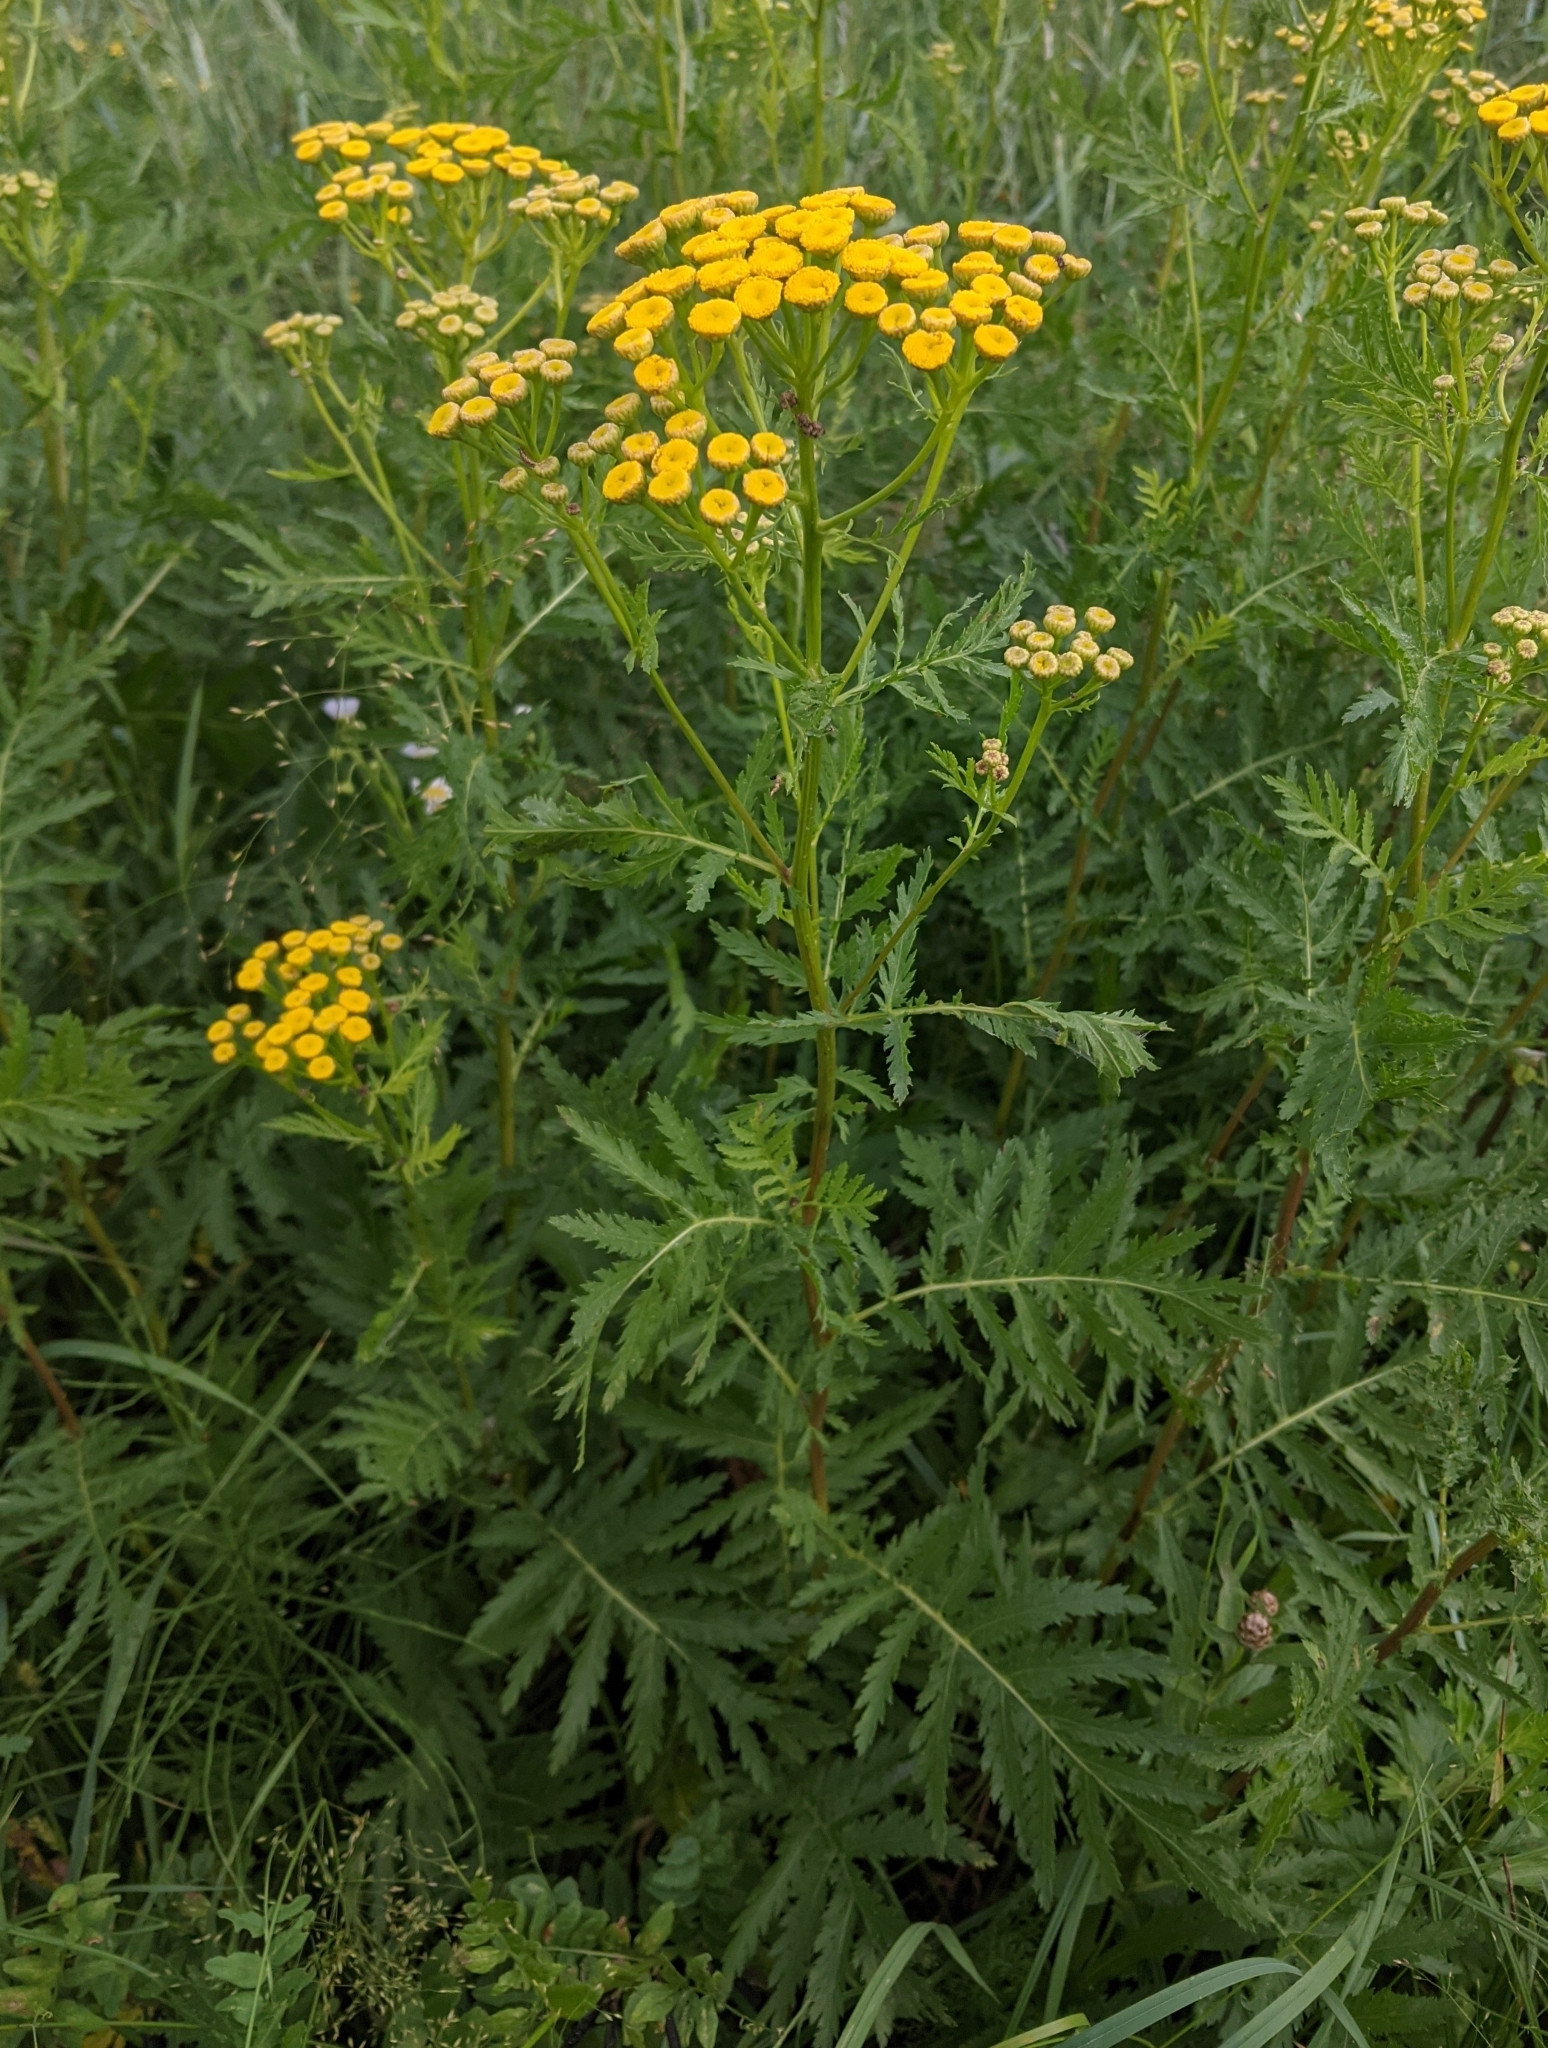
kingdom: Plantae
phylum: Tracheophyta
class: Magnoliopsida
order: Asterales
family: Asteraceae
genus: Tanacetum
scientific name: Tanacetum vulgare
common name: Common tansy
